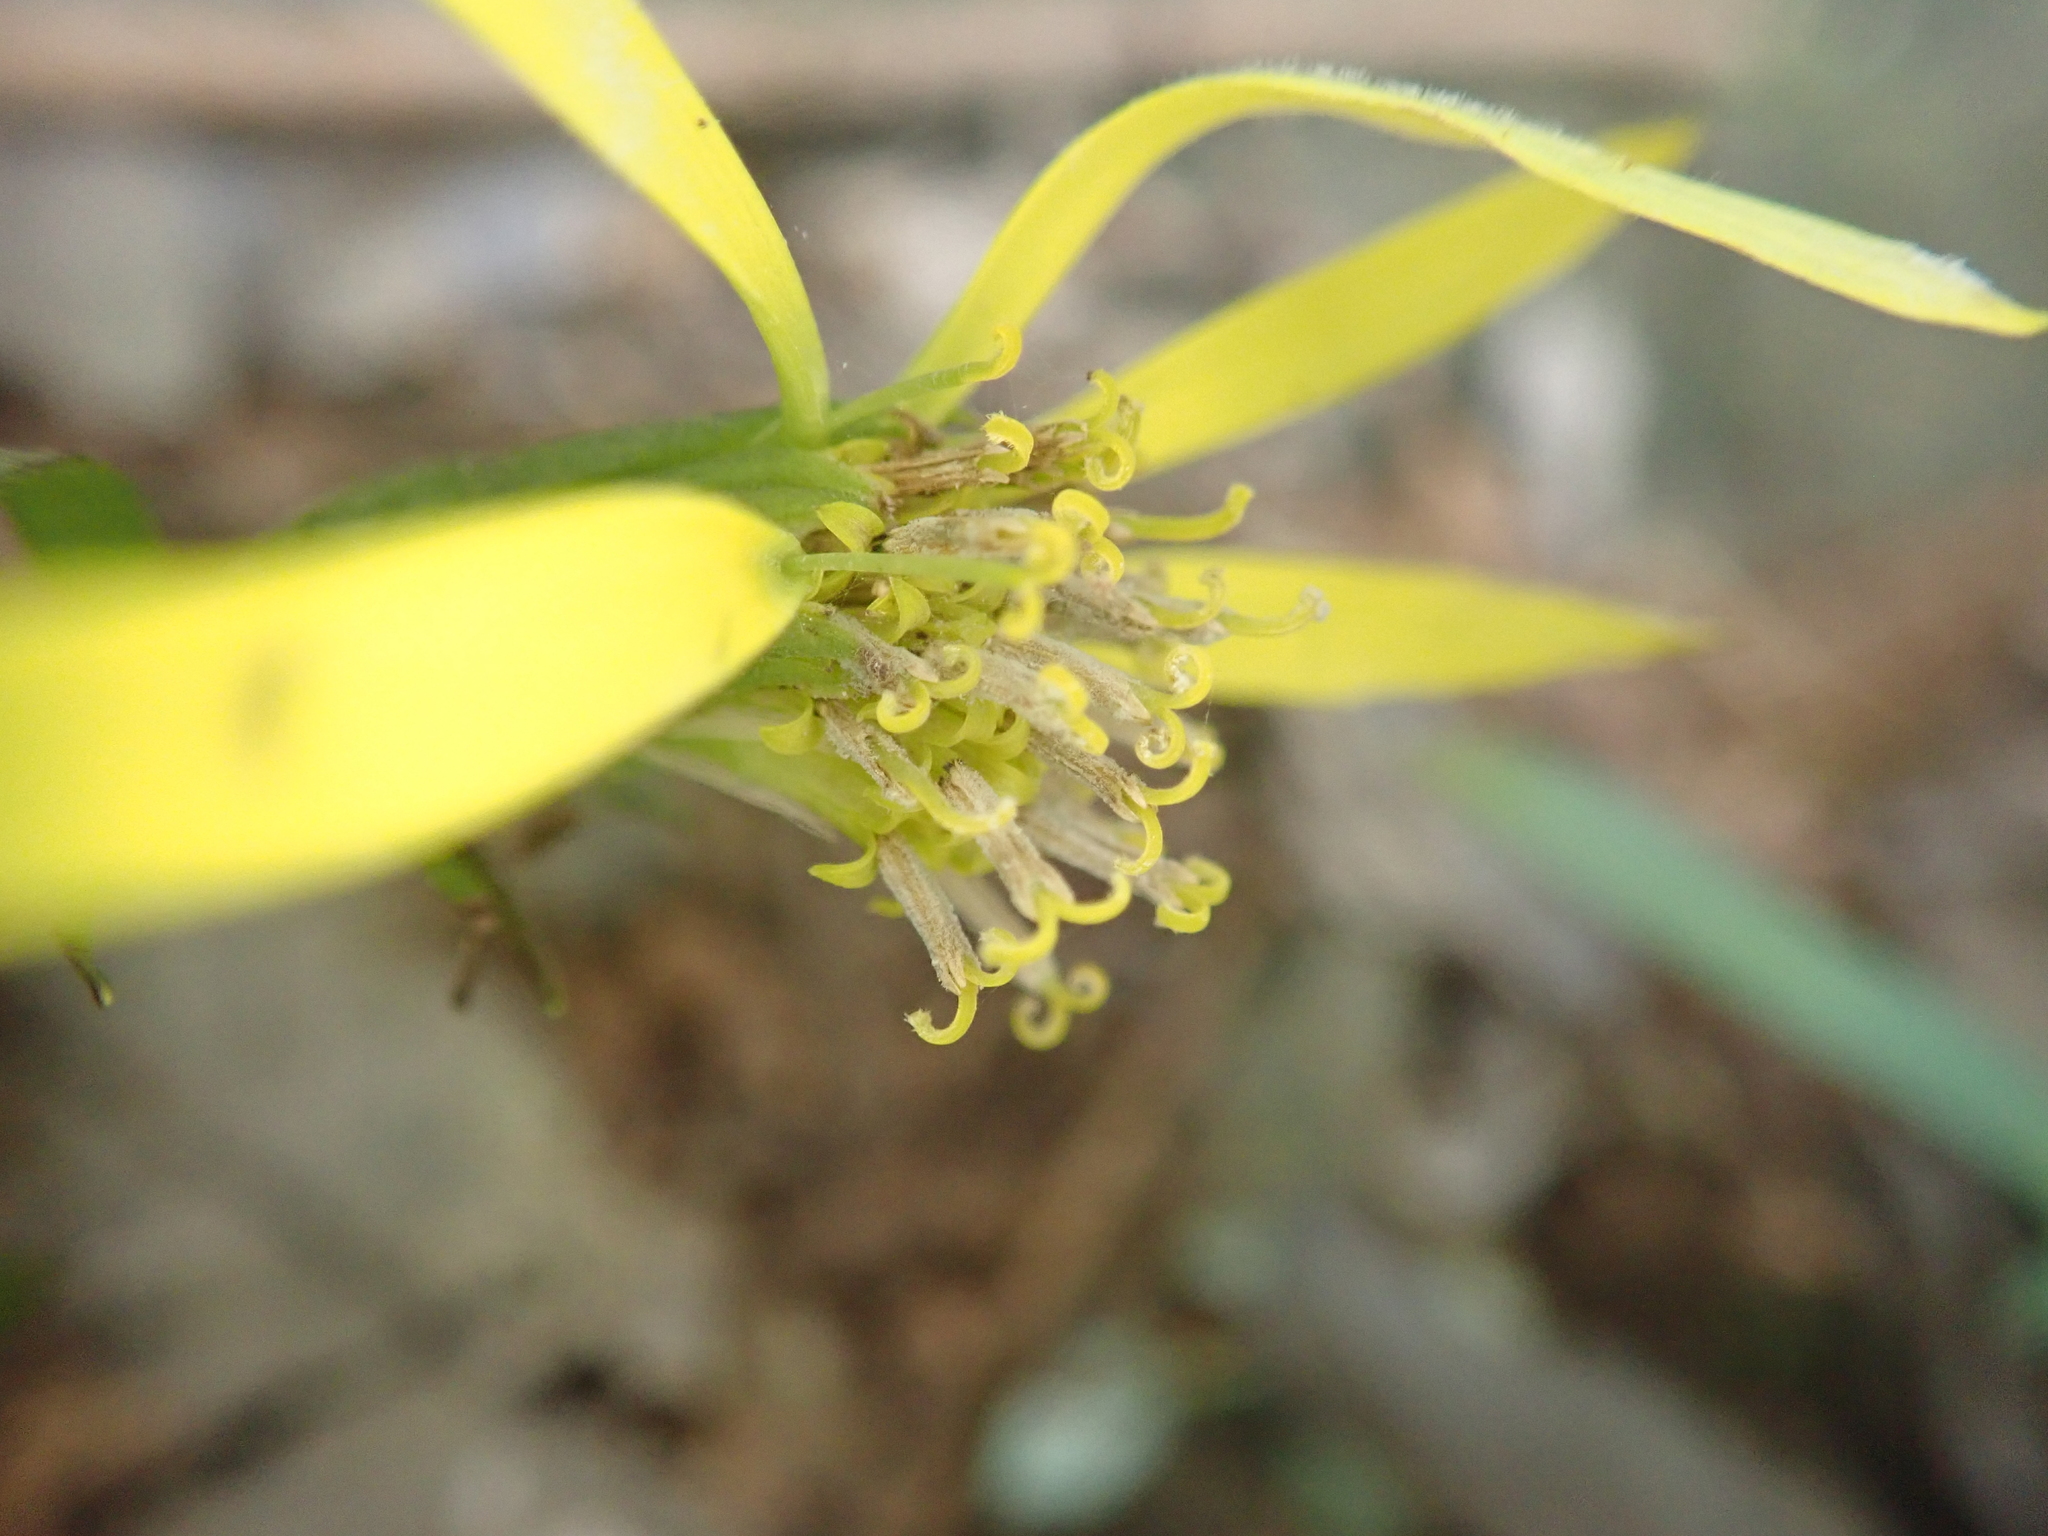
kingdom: Plantae
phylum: Tracheophyta
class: Magnoliopsida
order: Asterales
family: Asteraceae
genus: Farfugium
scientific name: Farfugium japonicum
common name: Leopardplant
